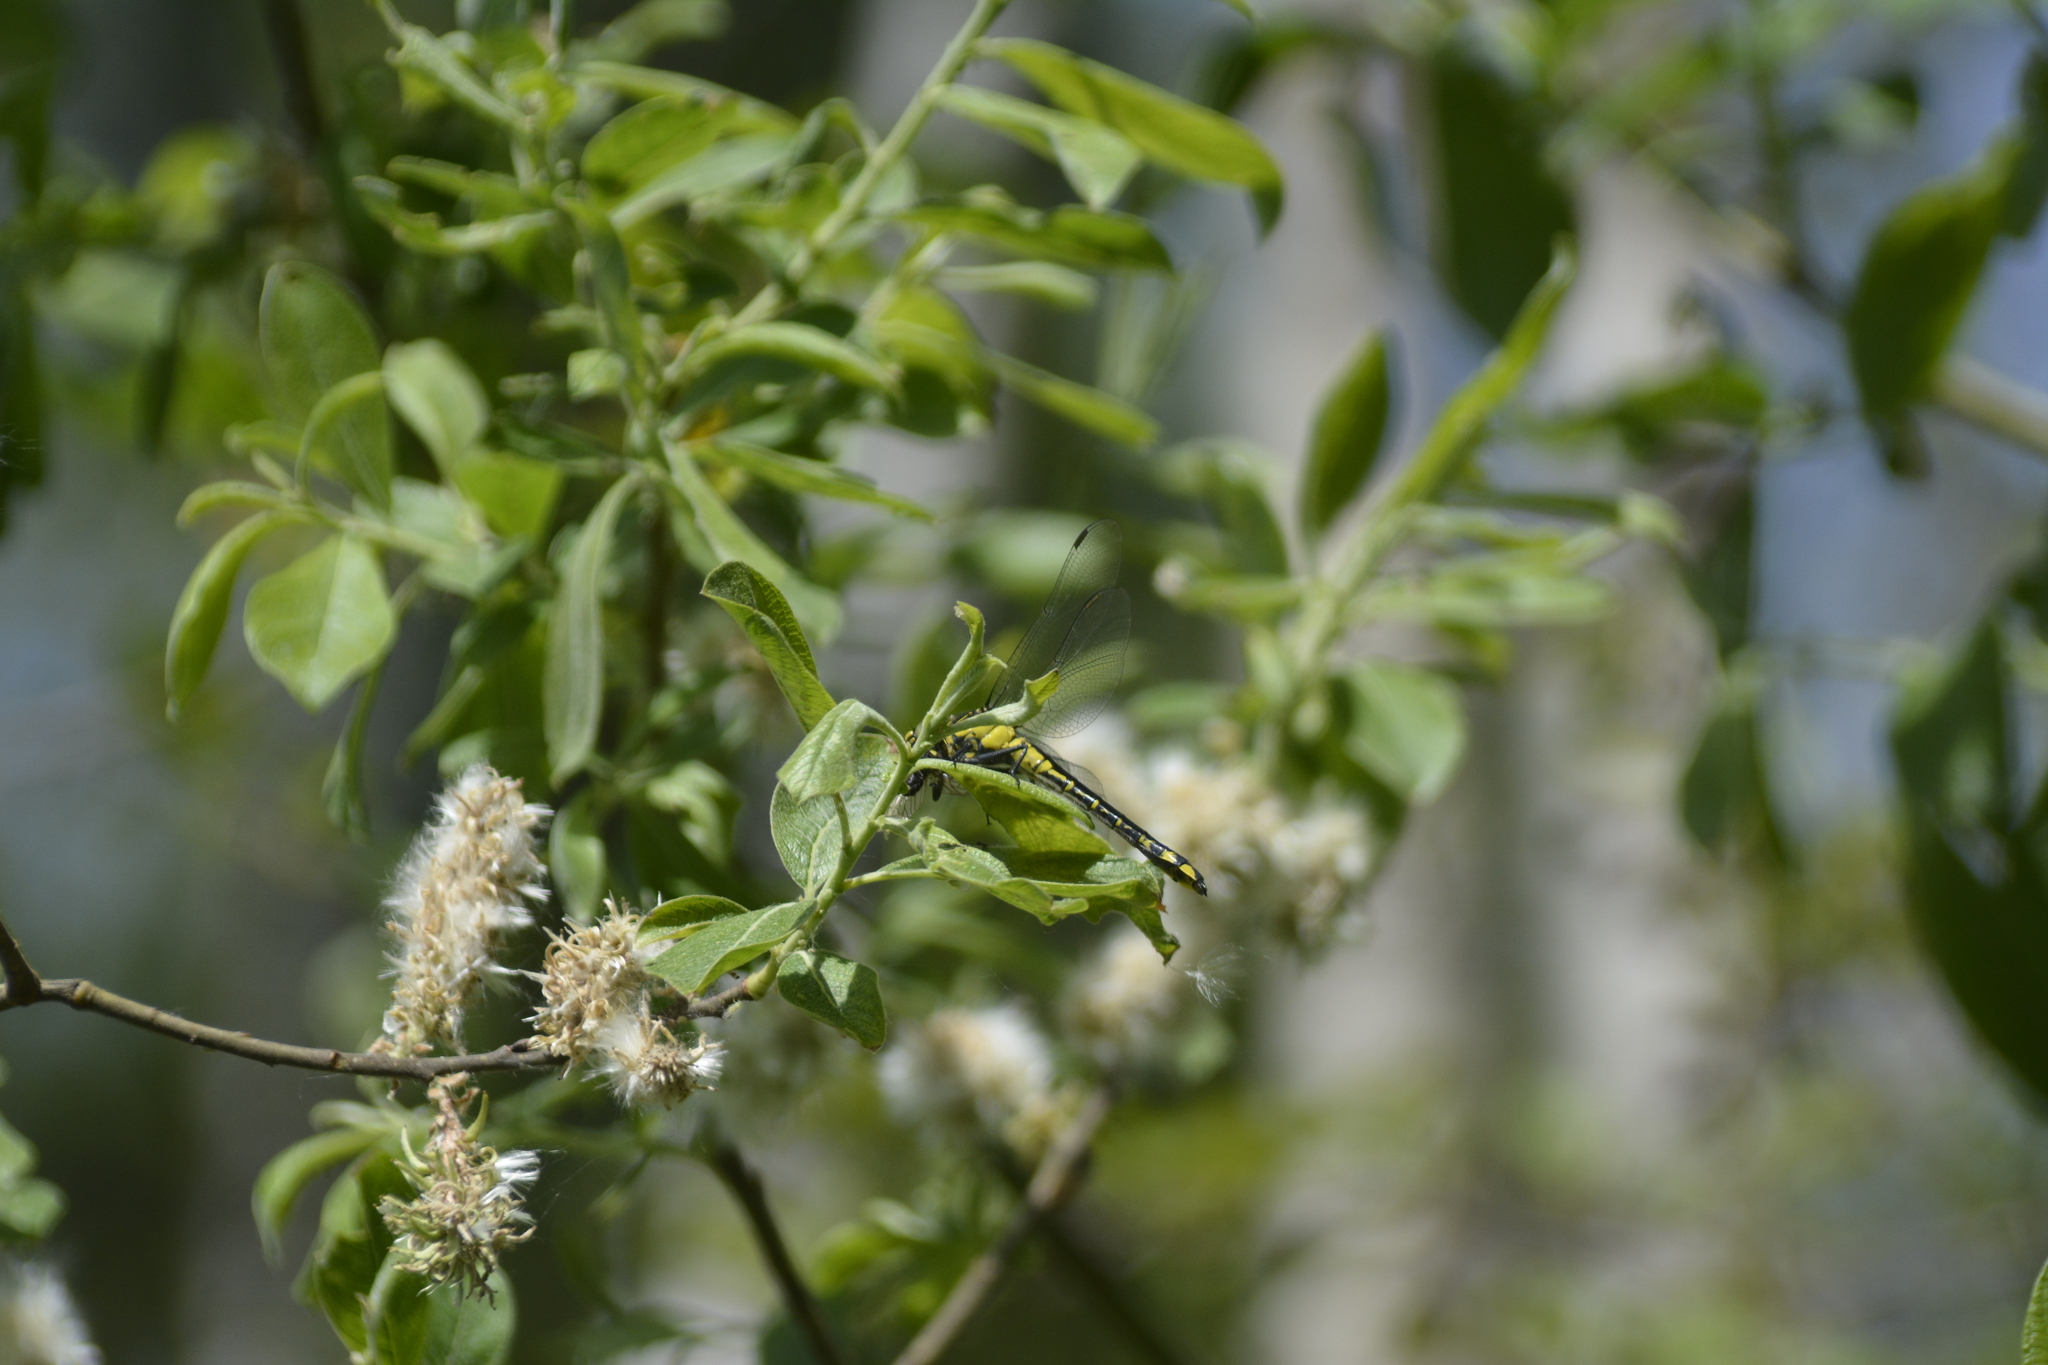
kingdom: Animalia
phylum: Arthropoda
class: Insecta
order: Odonata
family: Gomphidae
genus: Gomphus
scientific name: Gomphus vulgatissimus
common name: Club-tailed dragonfly
